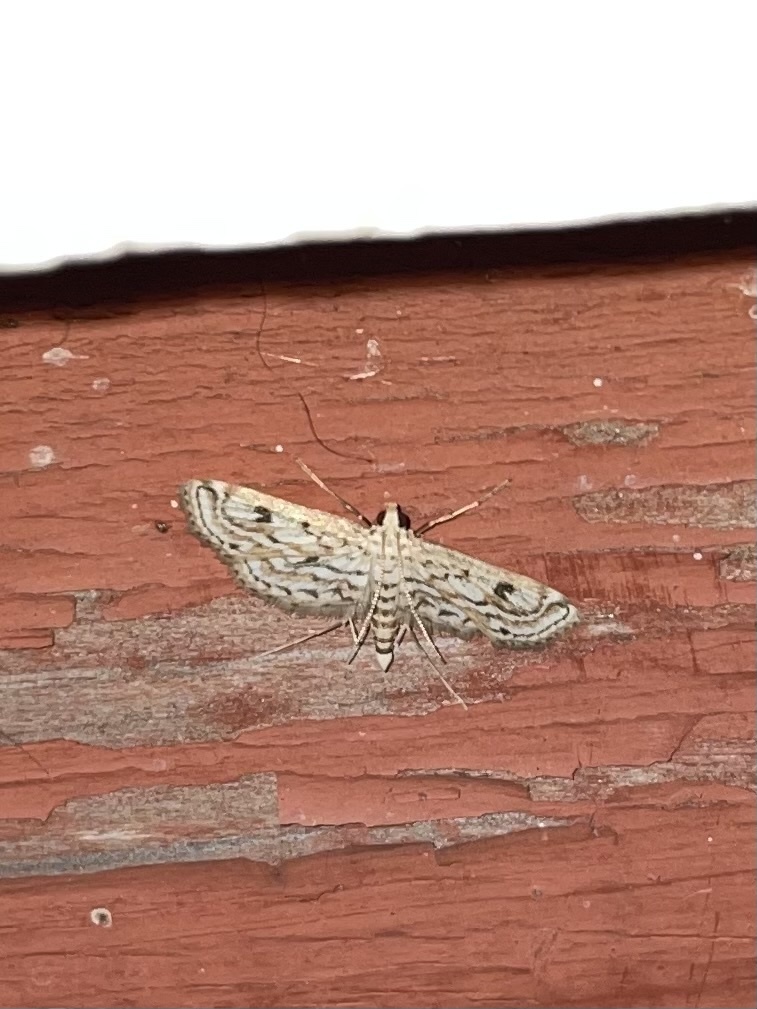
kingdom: Animalia
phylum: Arthropoda
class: Insecta
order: Lepidoptera
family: Crambidae
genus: Parapoynx
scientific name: Parapoynx allionealis
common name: Bladderwort casemaker
